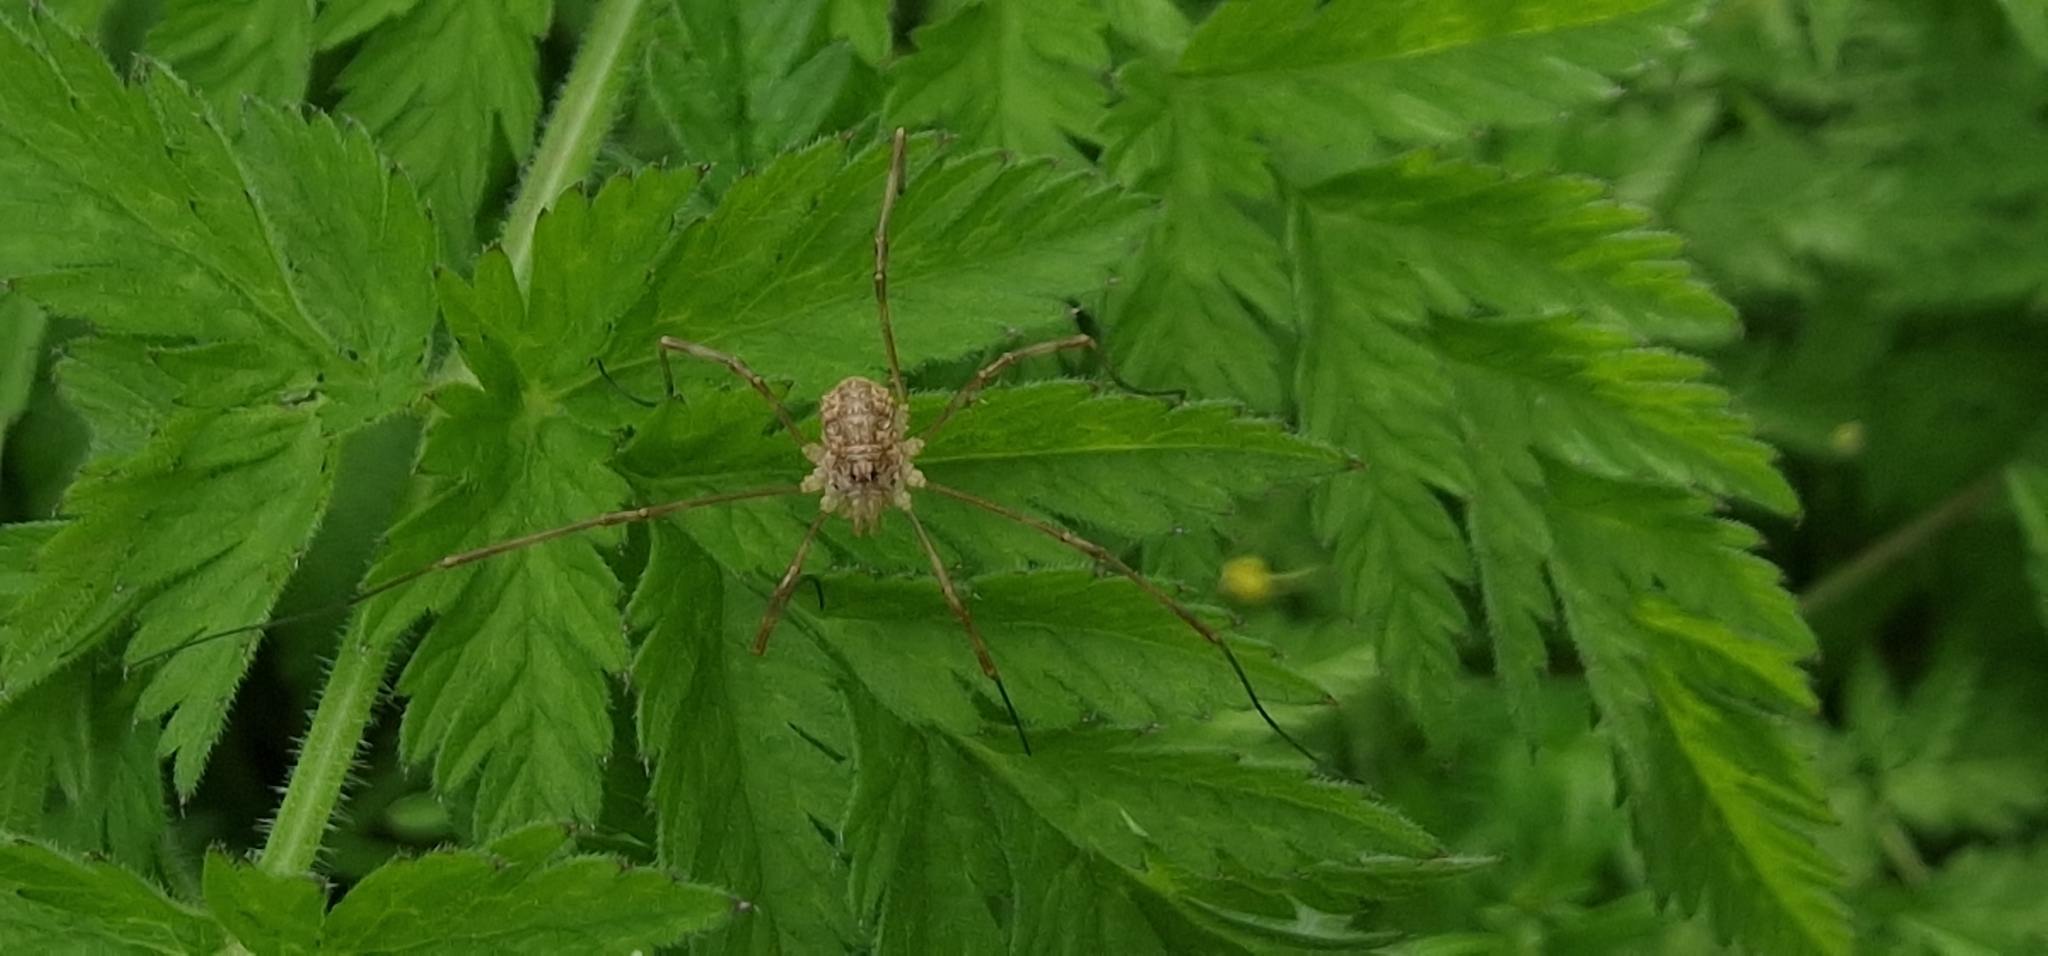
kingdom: Animalia
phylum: Arthropoda
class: Arachnida
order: Opiliones
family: Phalangiidae
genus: Rilaena
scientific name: Rilaena triangularis
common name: Spring harvestman
